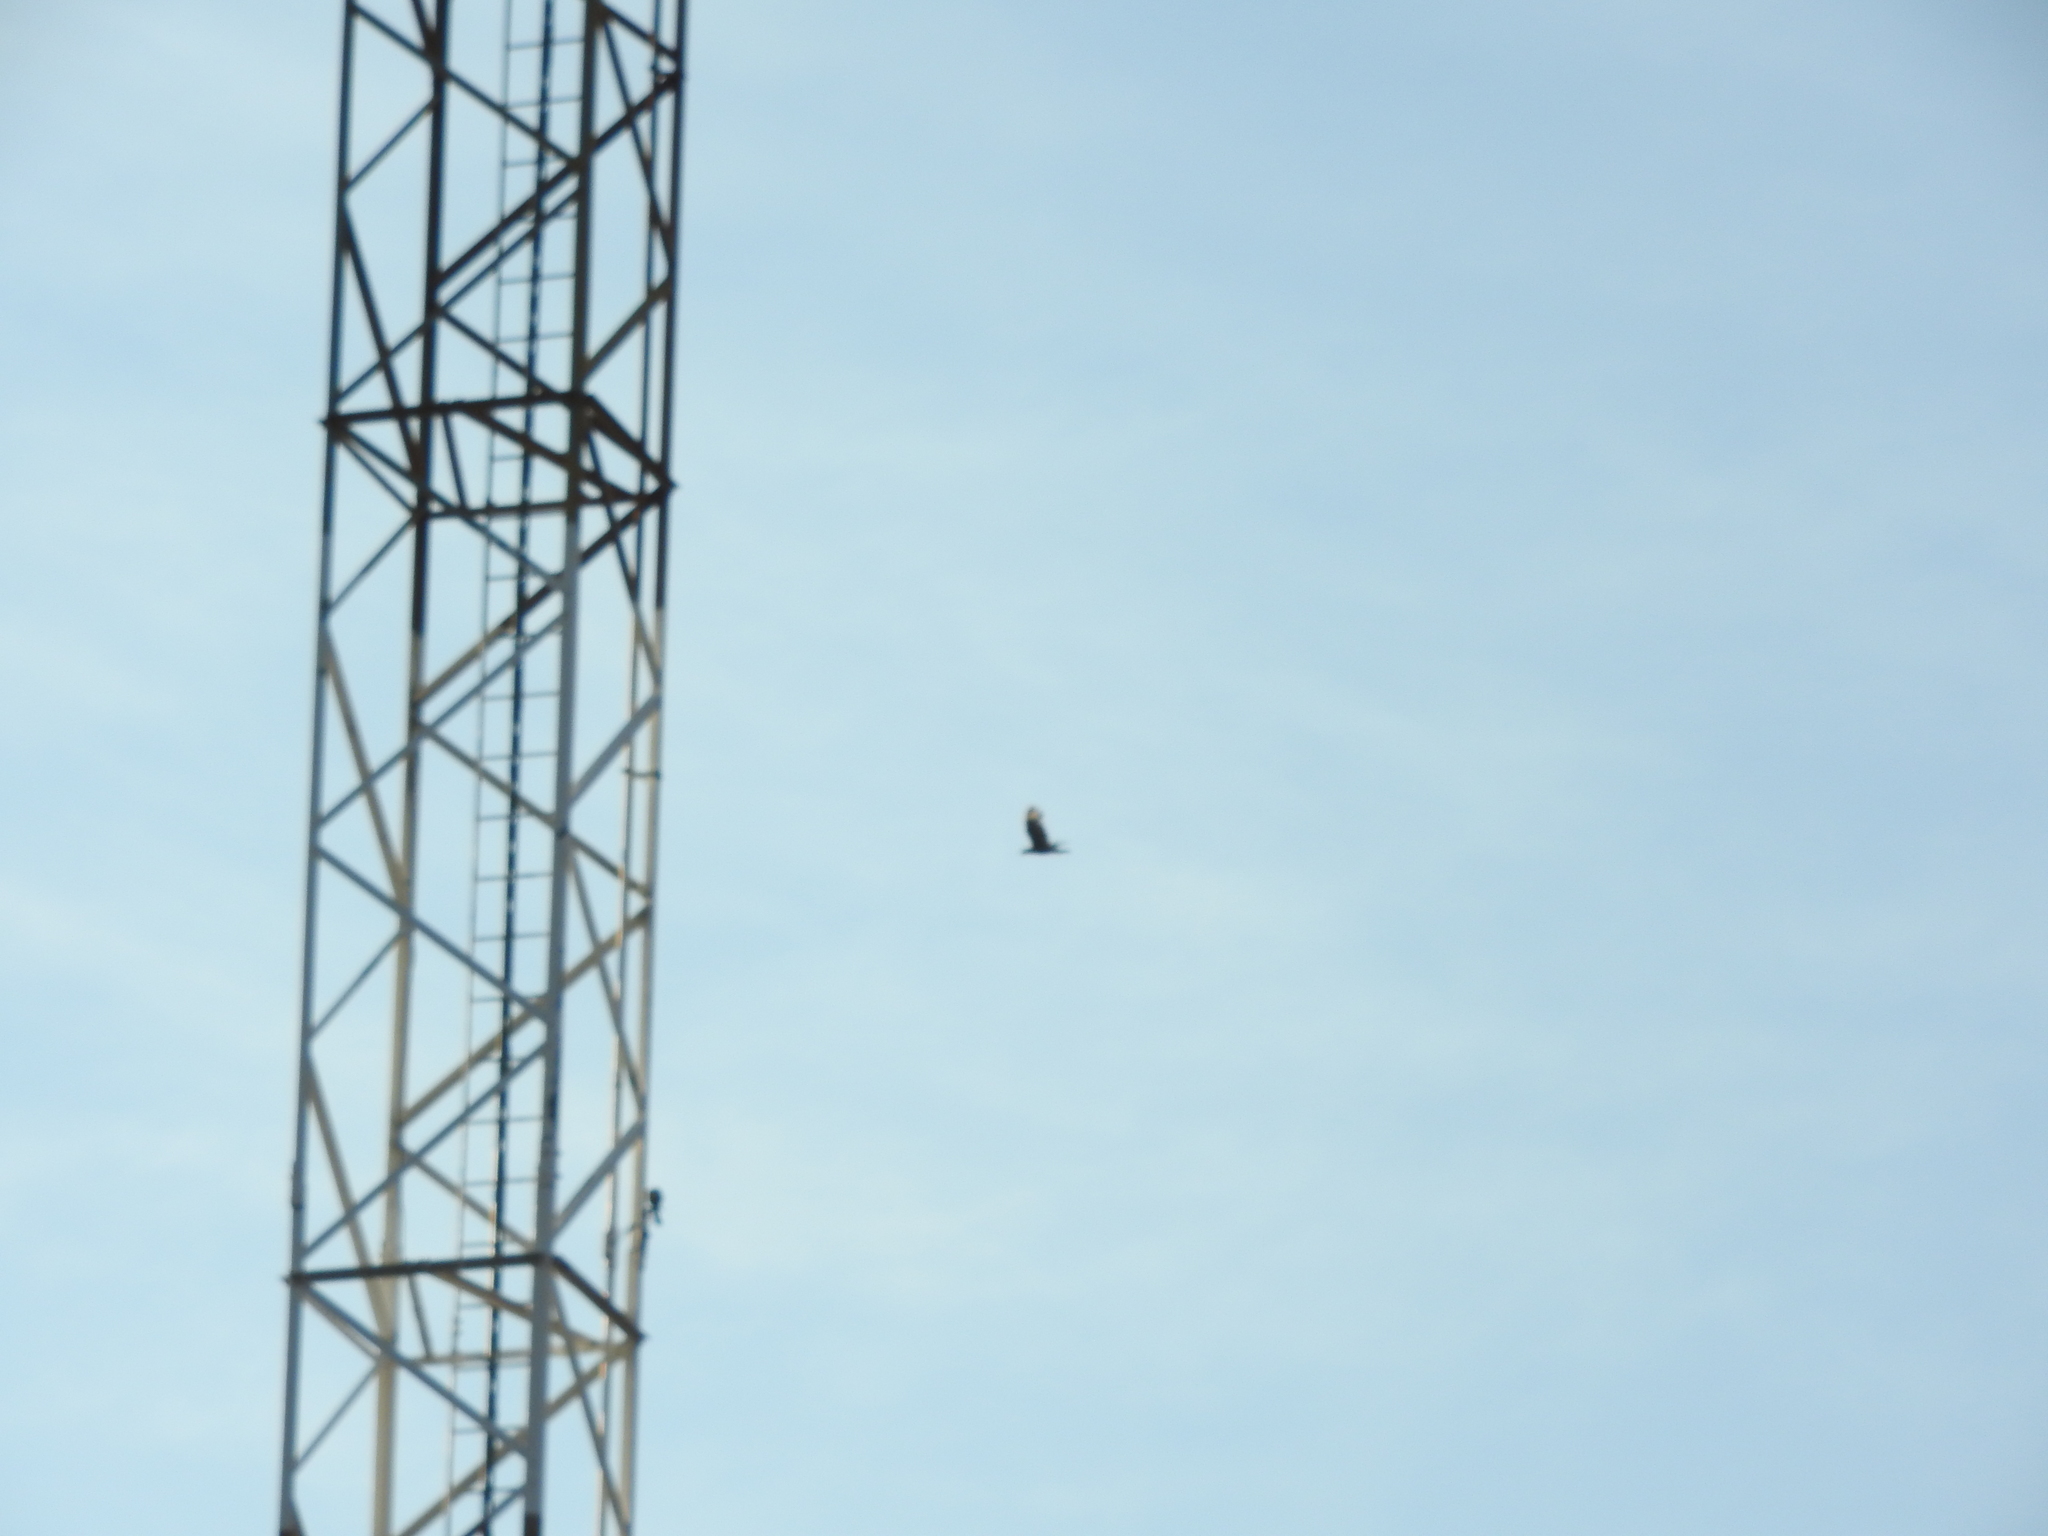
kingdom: Animalia
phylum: Chordata
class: Aves
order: Falconiformes
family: Falconidae
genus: Caracara
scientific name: Caracara plancus
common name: Southern caracara
